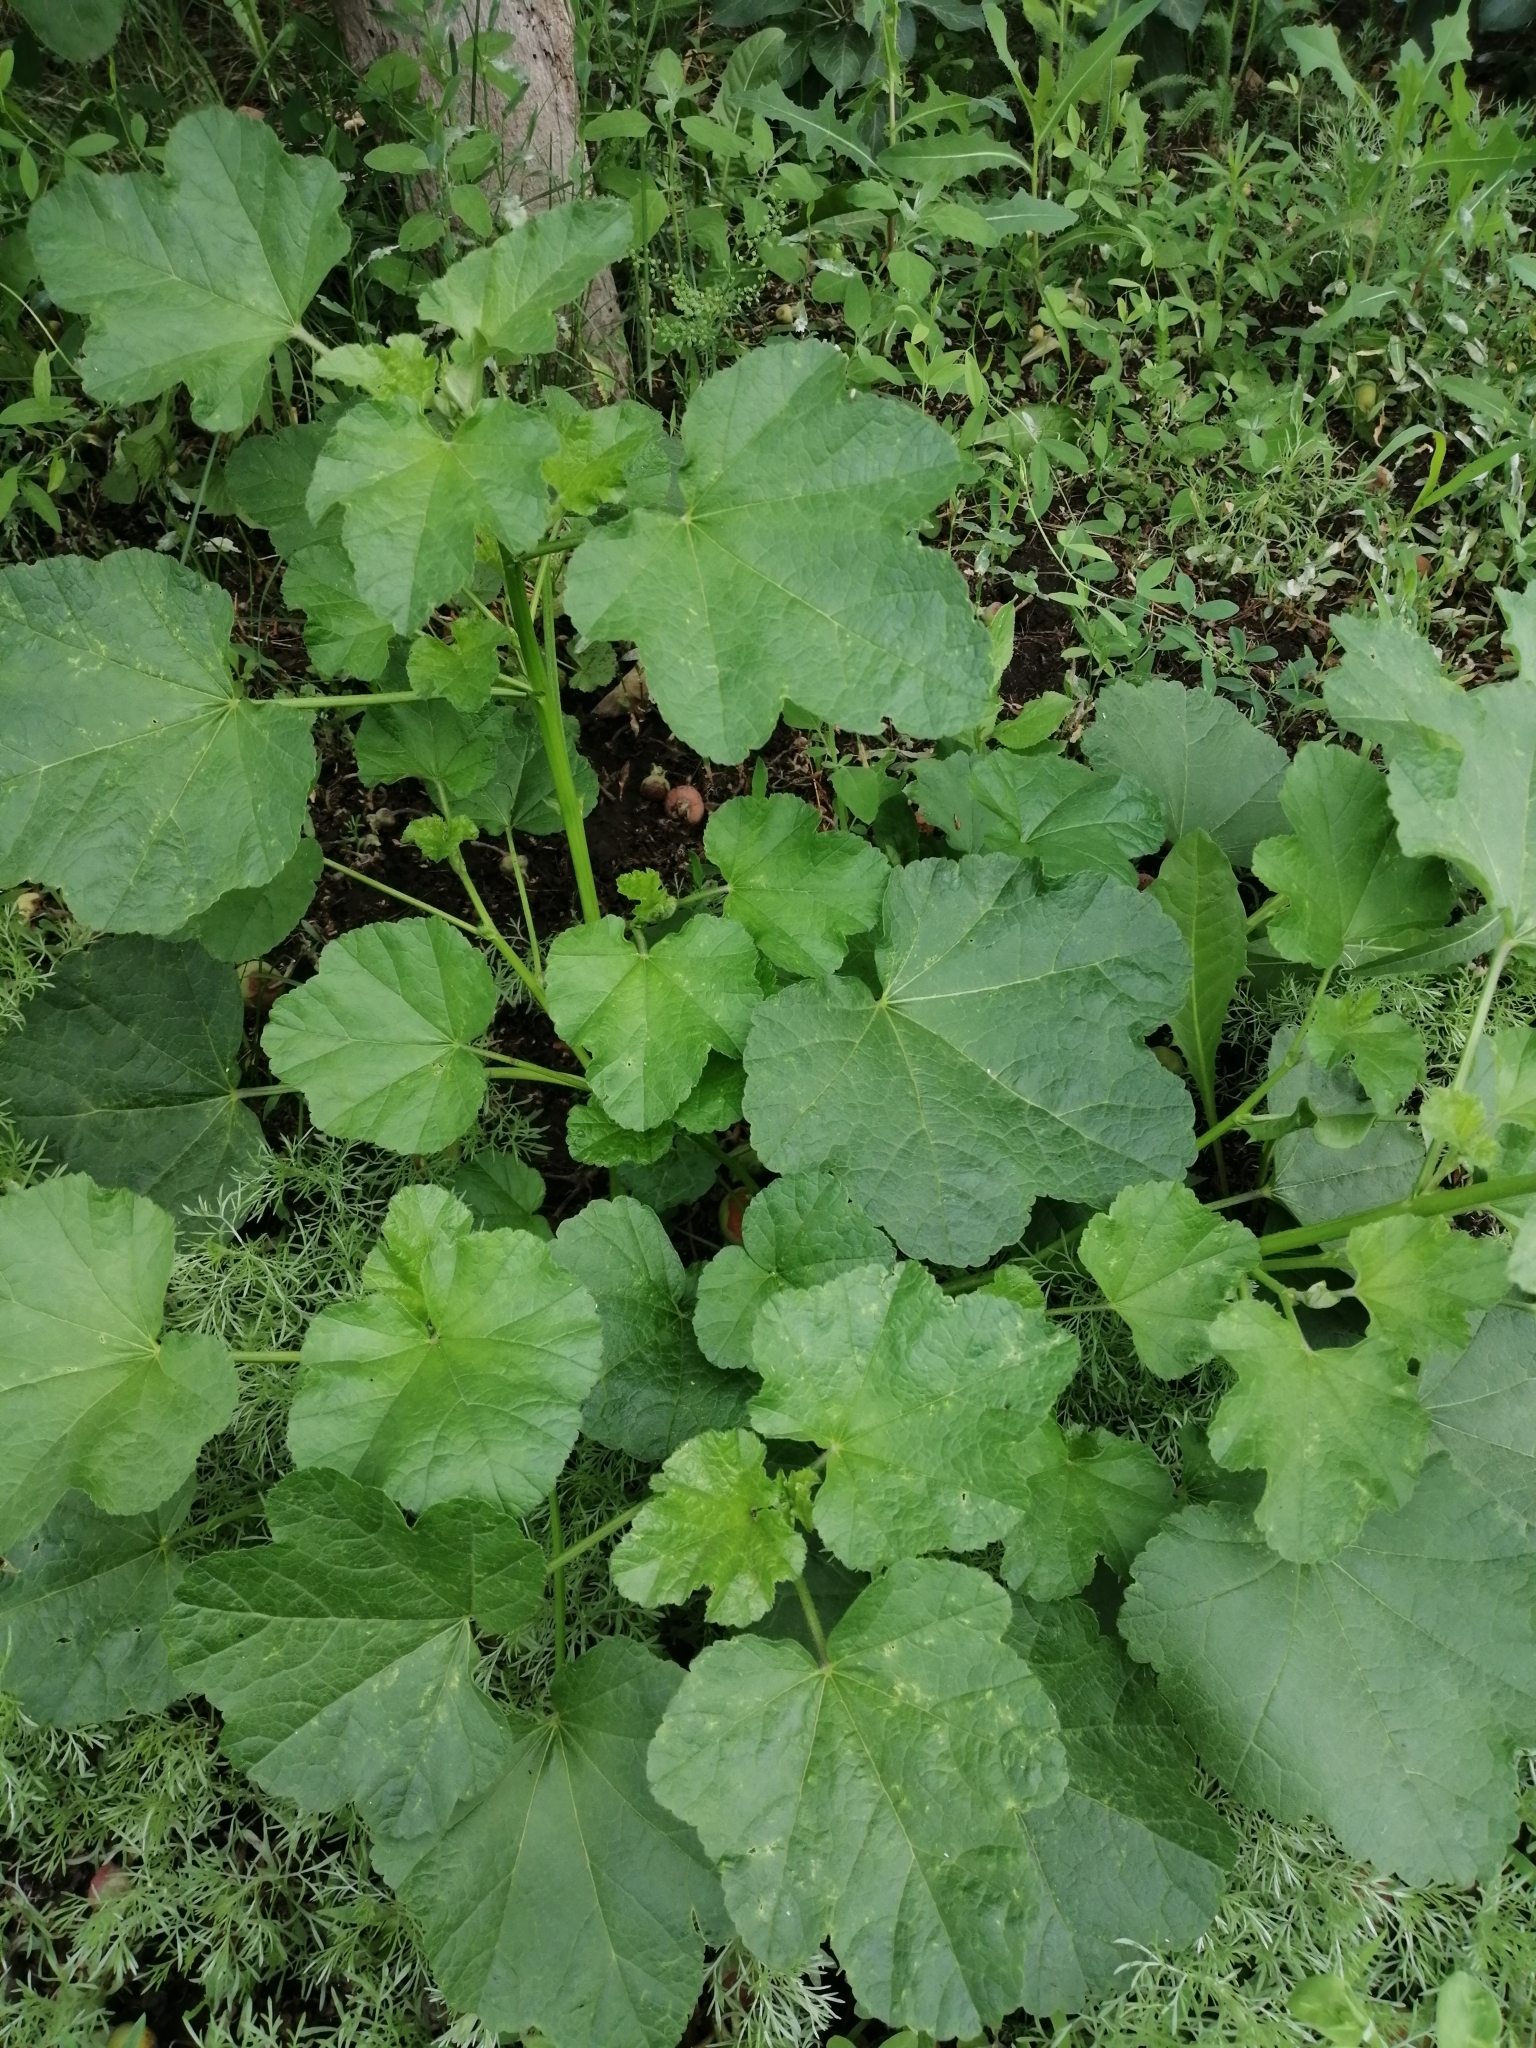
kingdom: Plantae
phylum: Tracheophyta
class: Magnoliopsida
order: Malvales
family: Malvaceae
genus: Malva
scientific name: Malva thuringiaca
